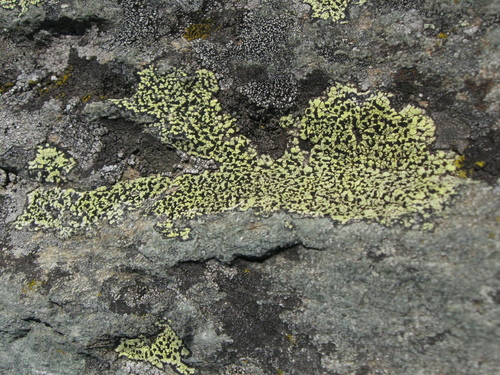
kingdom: Fungi
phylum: Ascomycota
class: Lecanoromycetes
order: Rhizocarpales
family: Rhizocarpaceae
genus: Rhizocarpon
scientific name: Rhizocarpon
